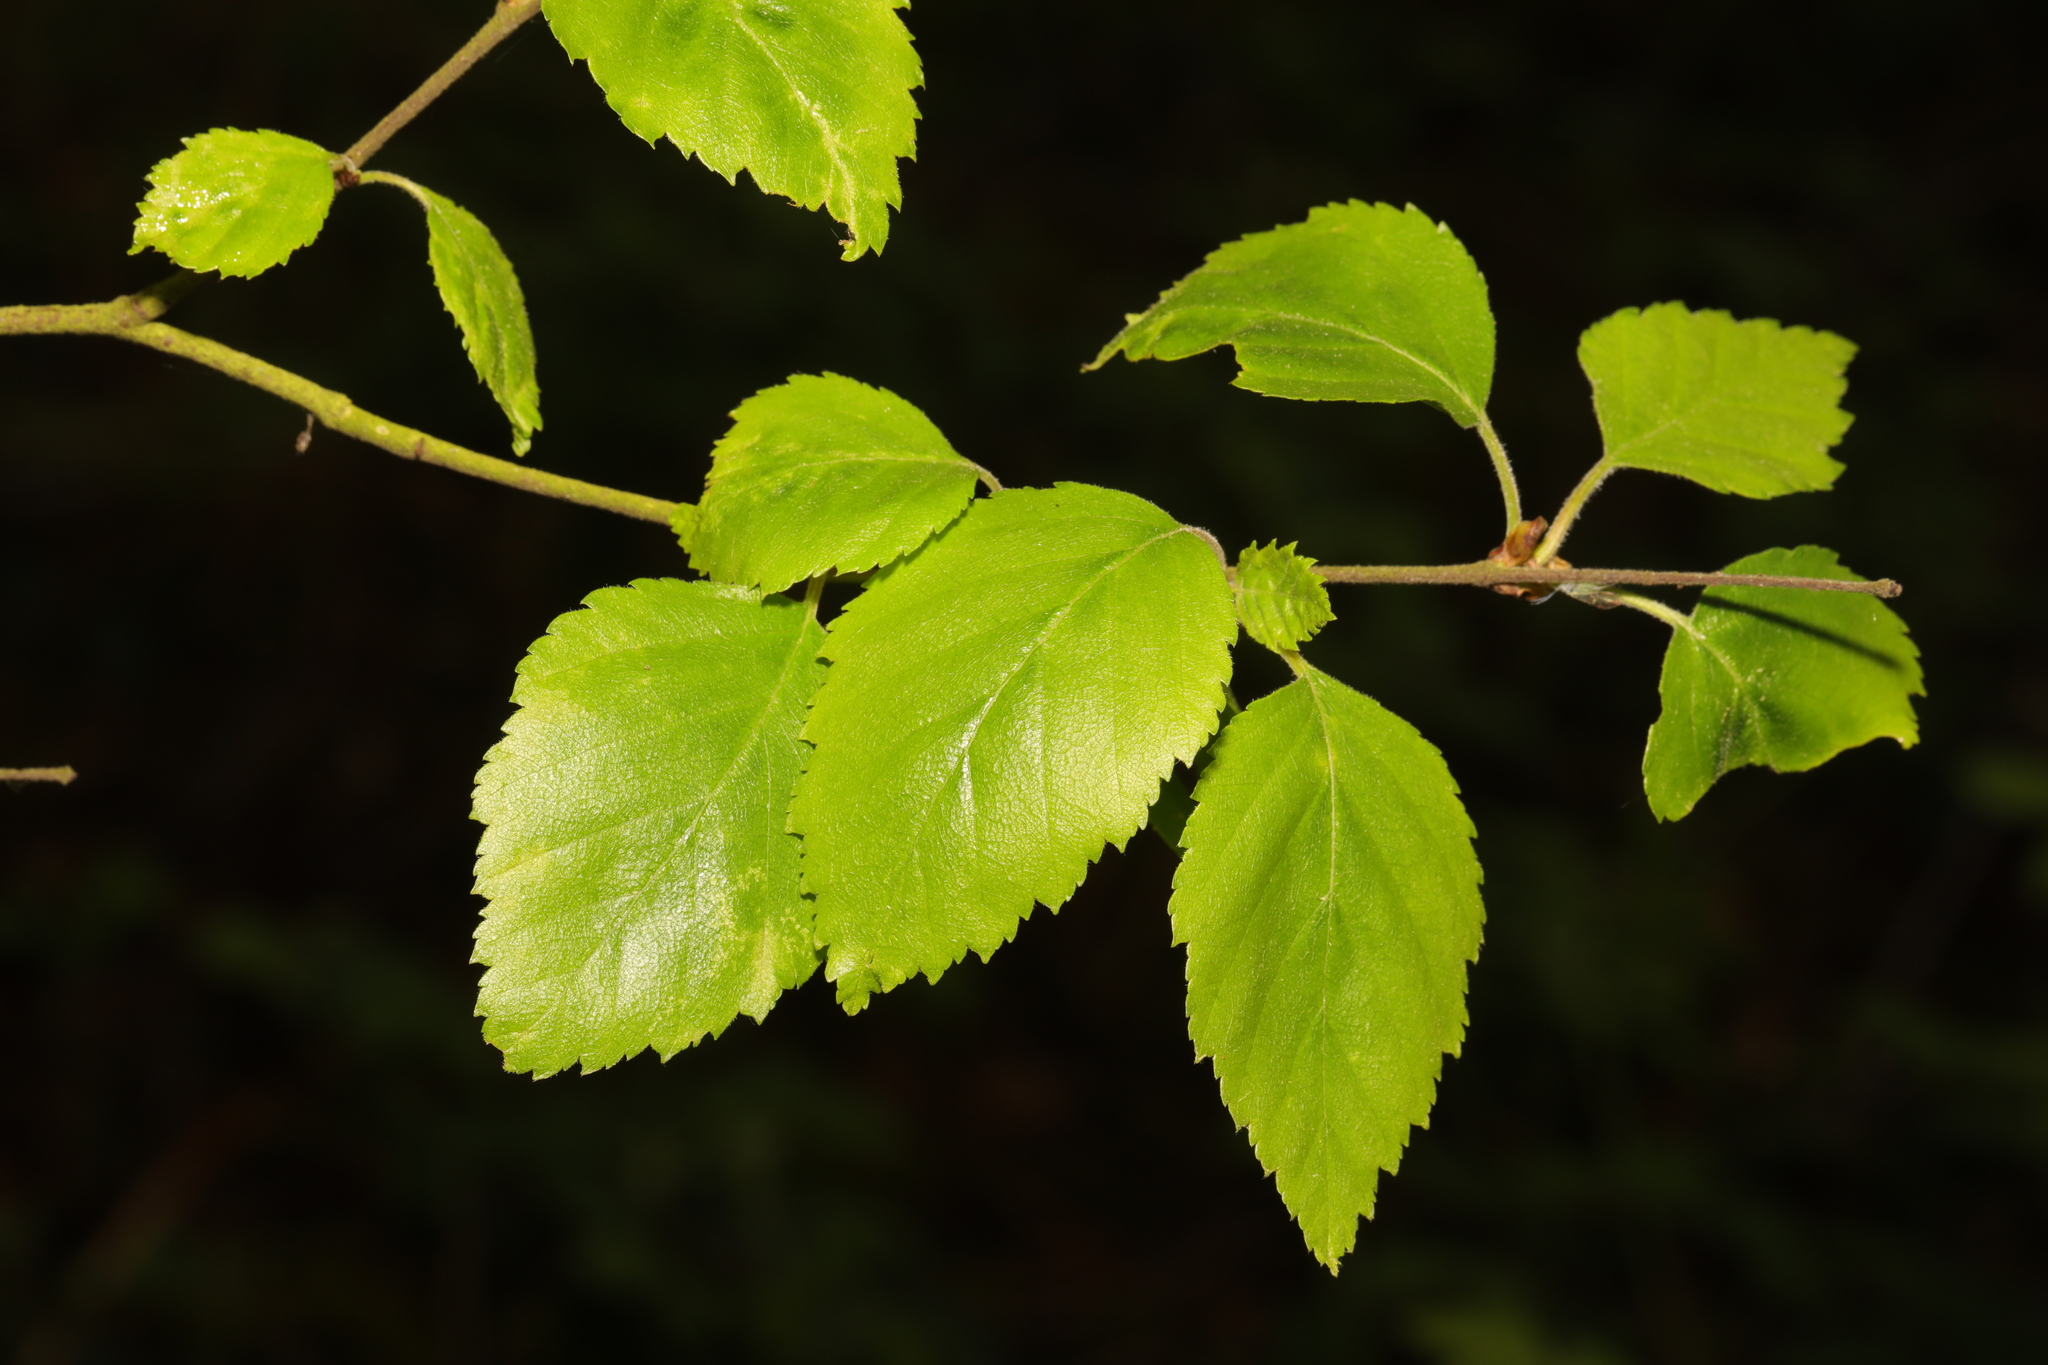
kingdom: Plantae
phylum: Tracheophyta
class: Magnoliopsida
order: Fagales
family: Betulaceae
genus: Betula
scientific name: Betula pubescens
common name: Downy birch
